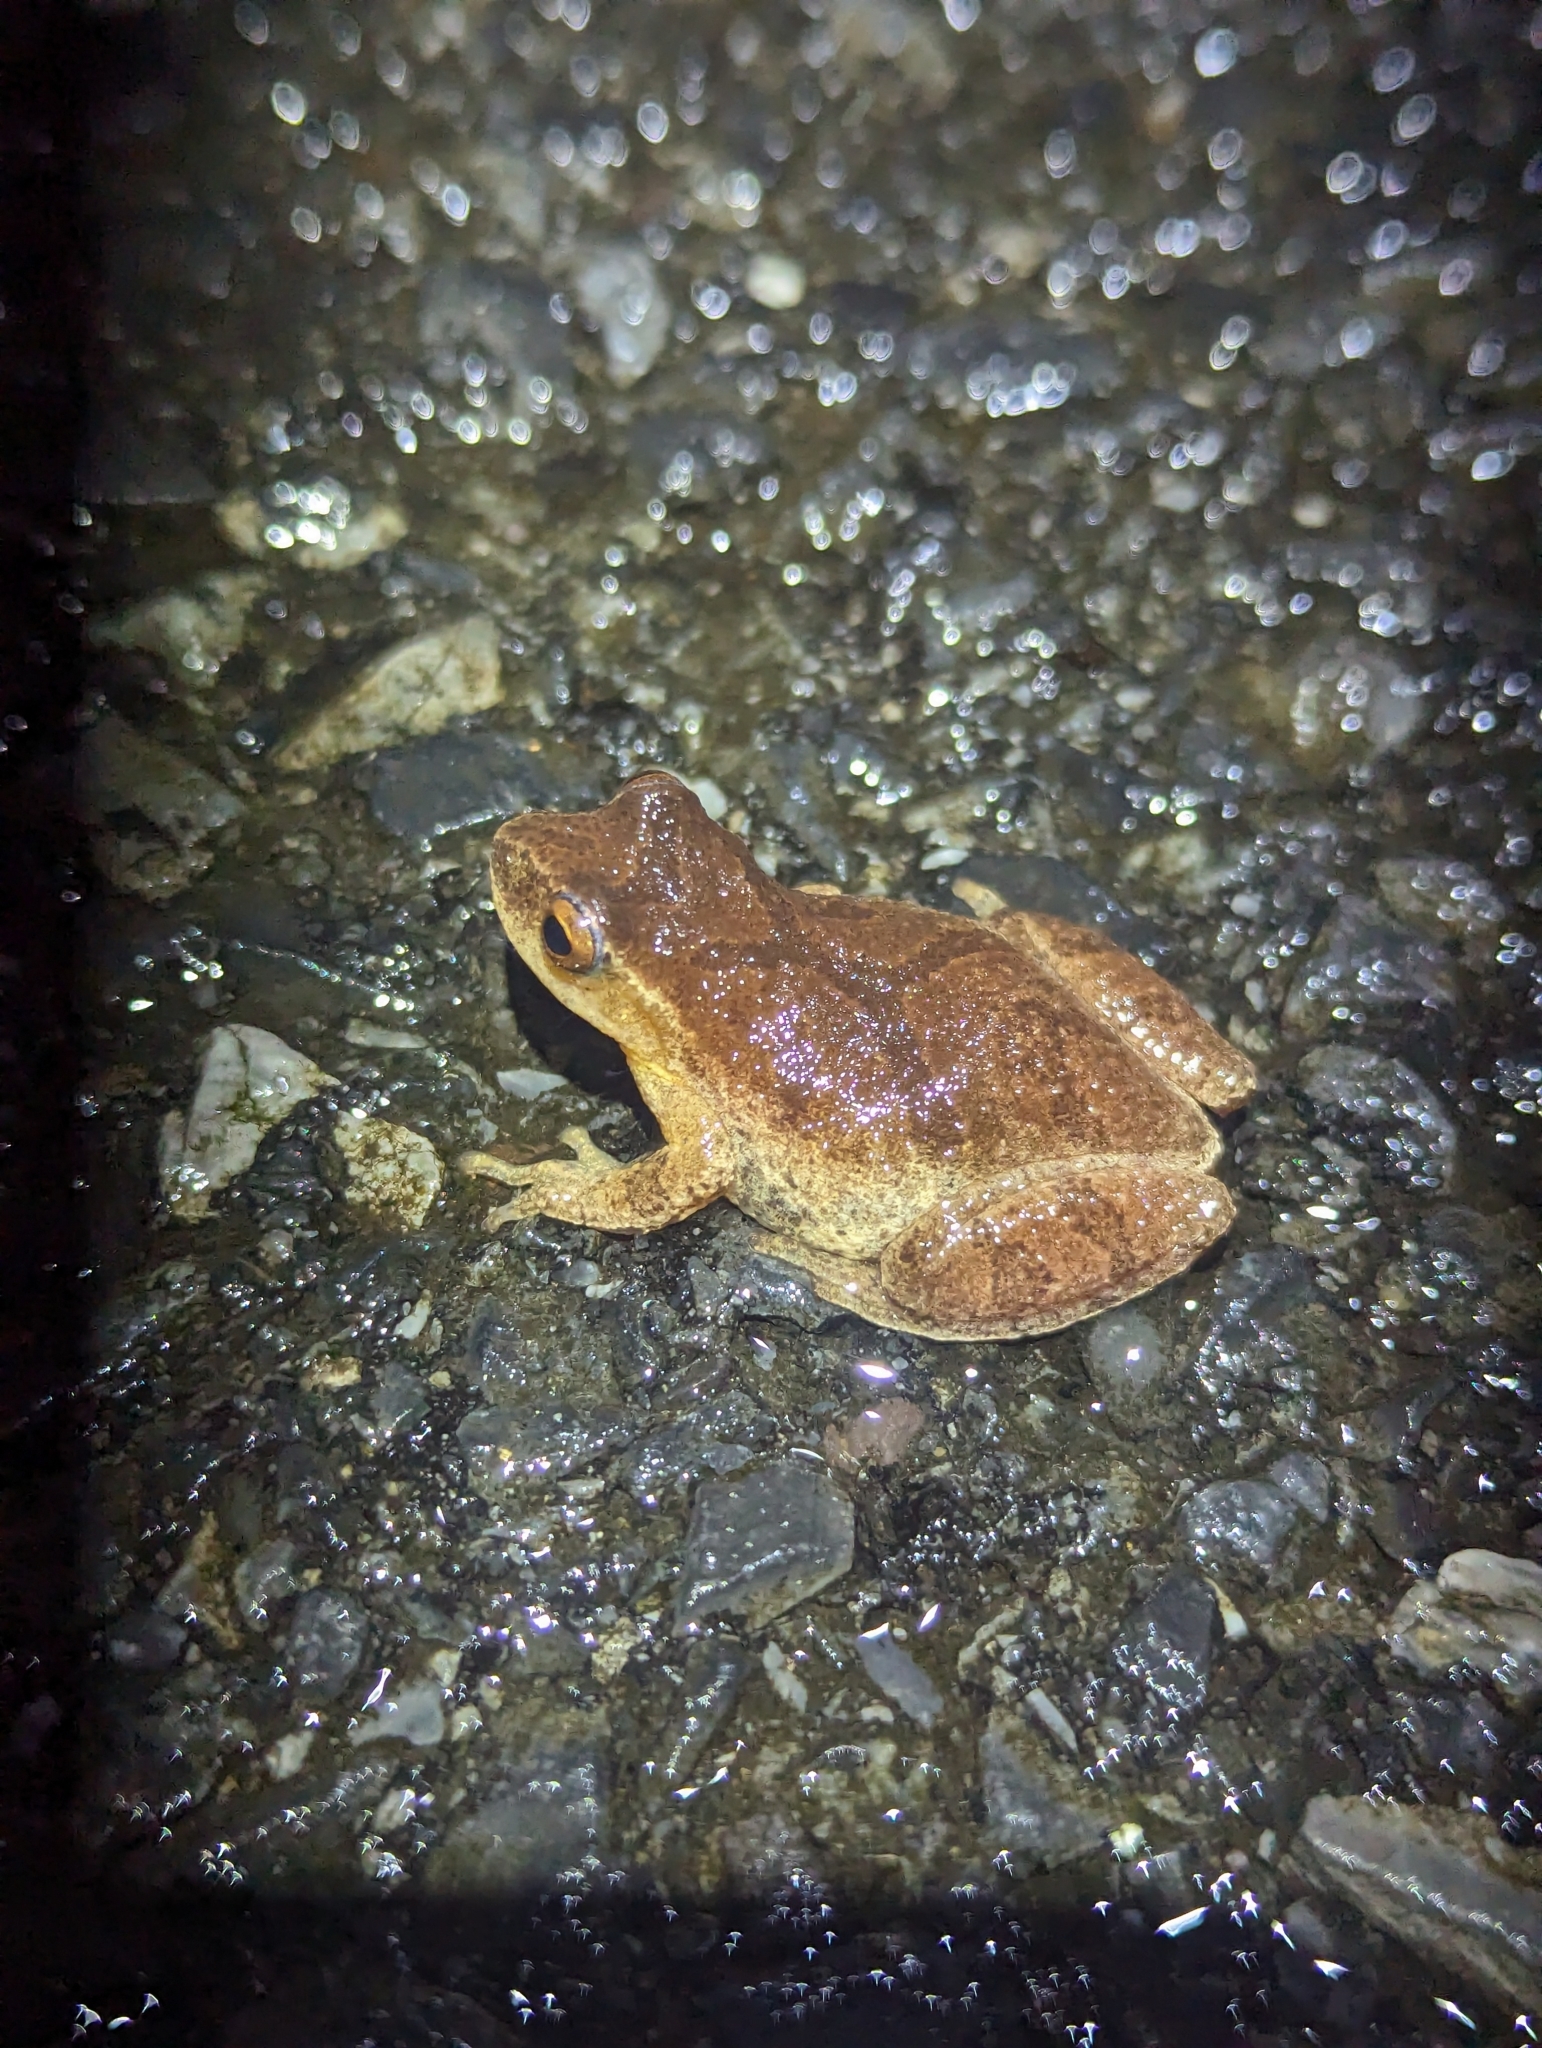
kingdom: Animalia
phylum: Chordata
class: Amphibia
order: Anura
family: Hylidae
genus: Pseudacris
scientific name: Pseudacris crucifer
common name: Spring peeper
